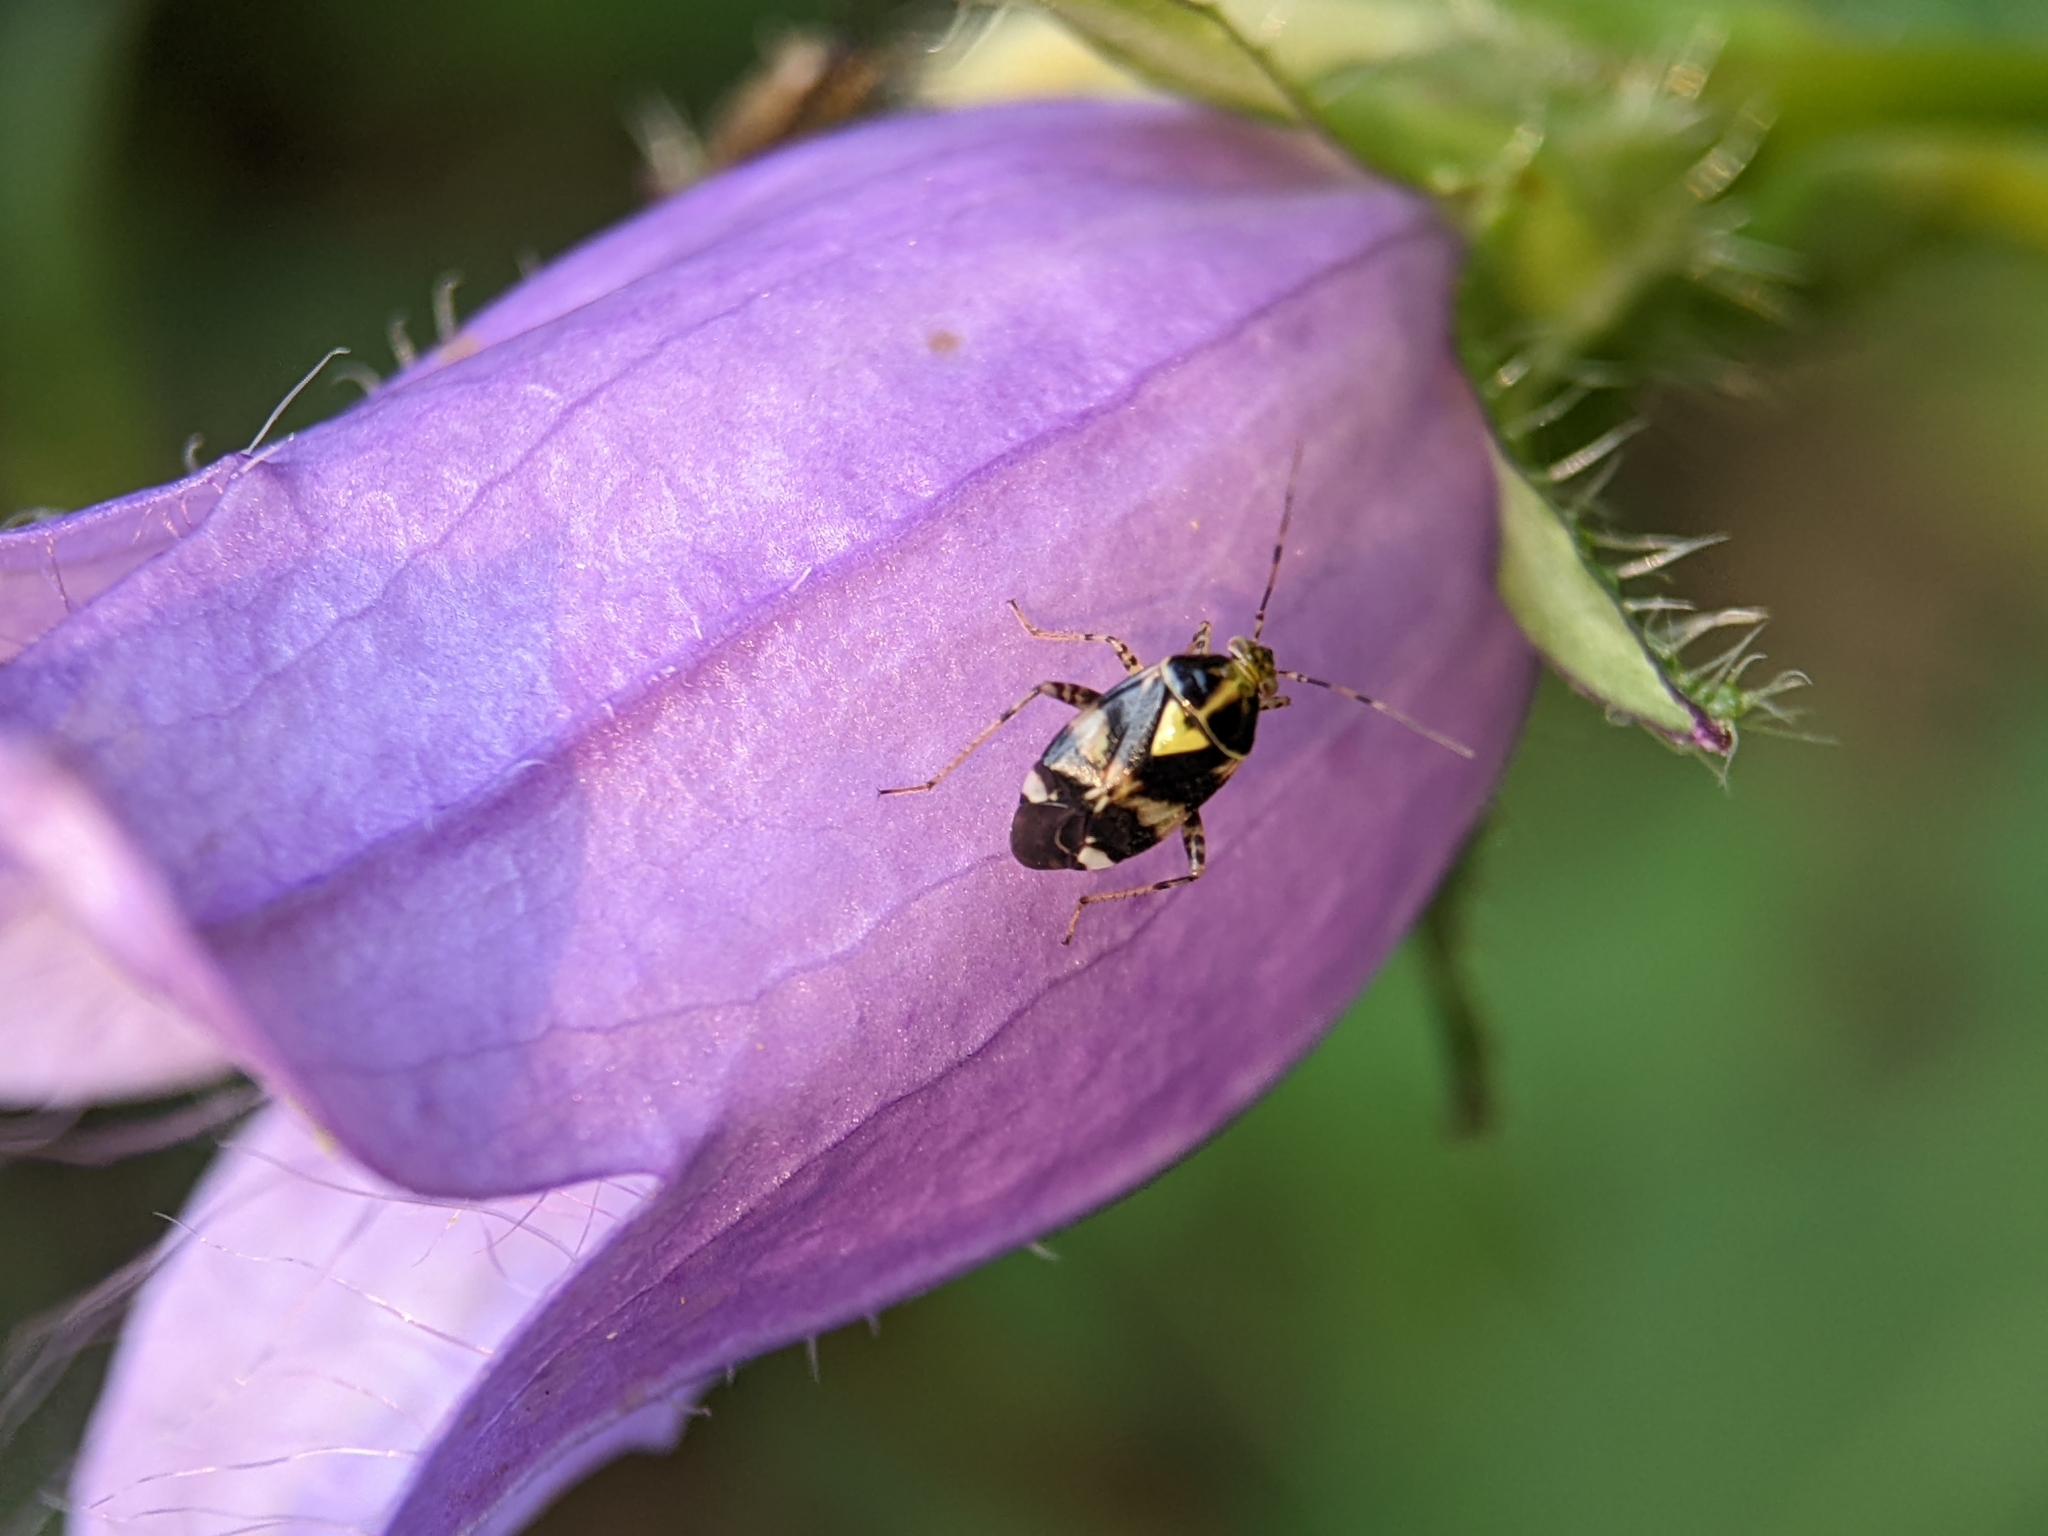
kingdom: Animalia
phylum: Arthropoda
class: Insecta
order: Hemiptera
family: Miridae
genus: Liocoris
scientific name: Liocoris tripustulatus
